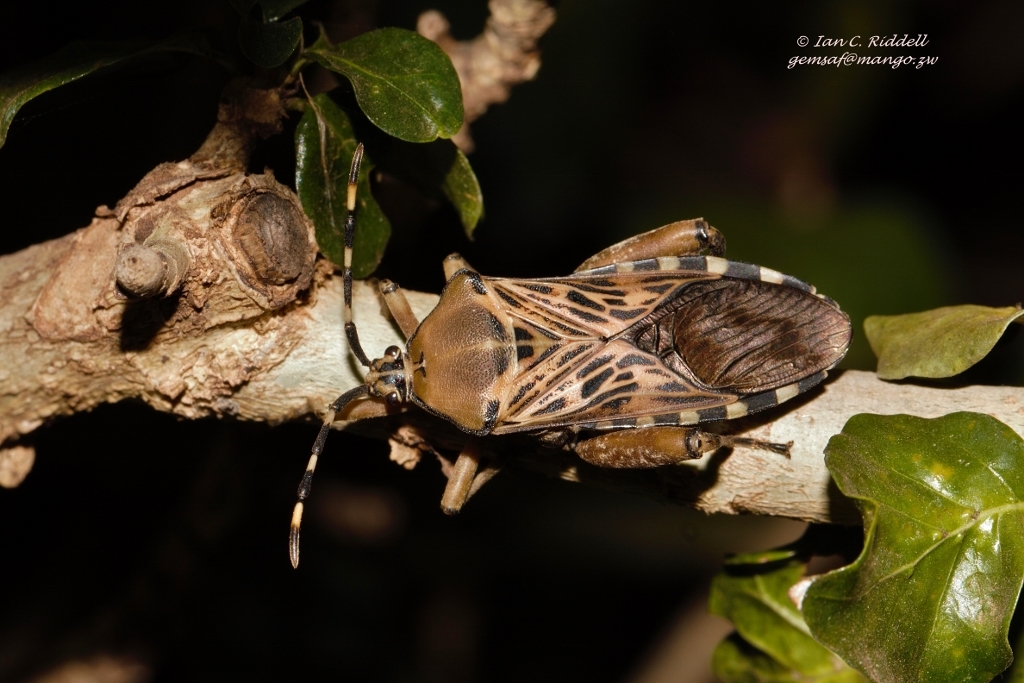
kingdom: Animalia
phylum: Arthropoda
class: Insecta
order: Hemiptera
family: Coreidae
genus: Carlisis
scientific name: Carlisis wahlbergi
